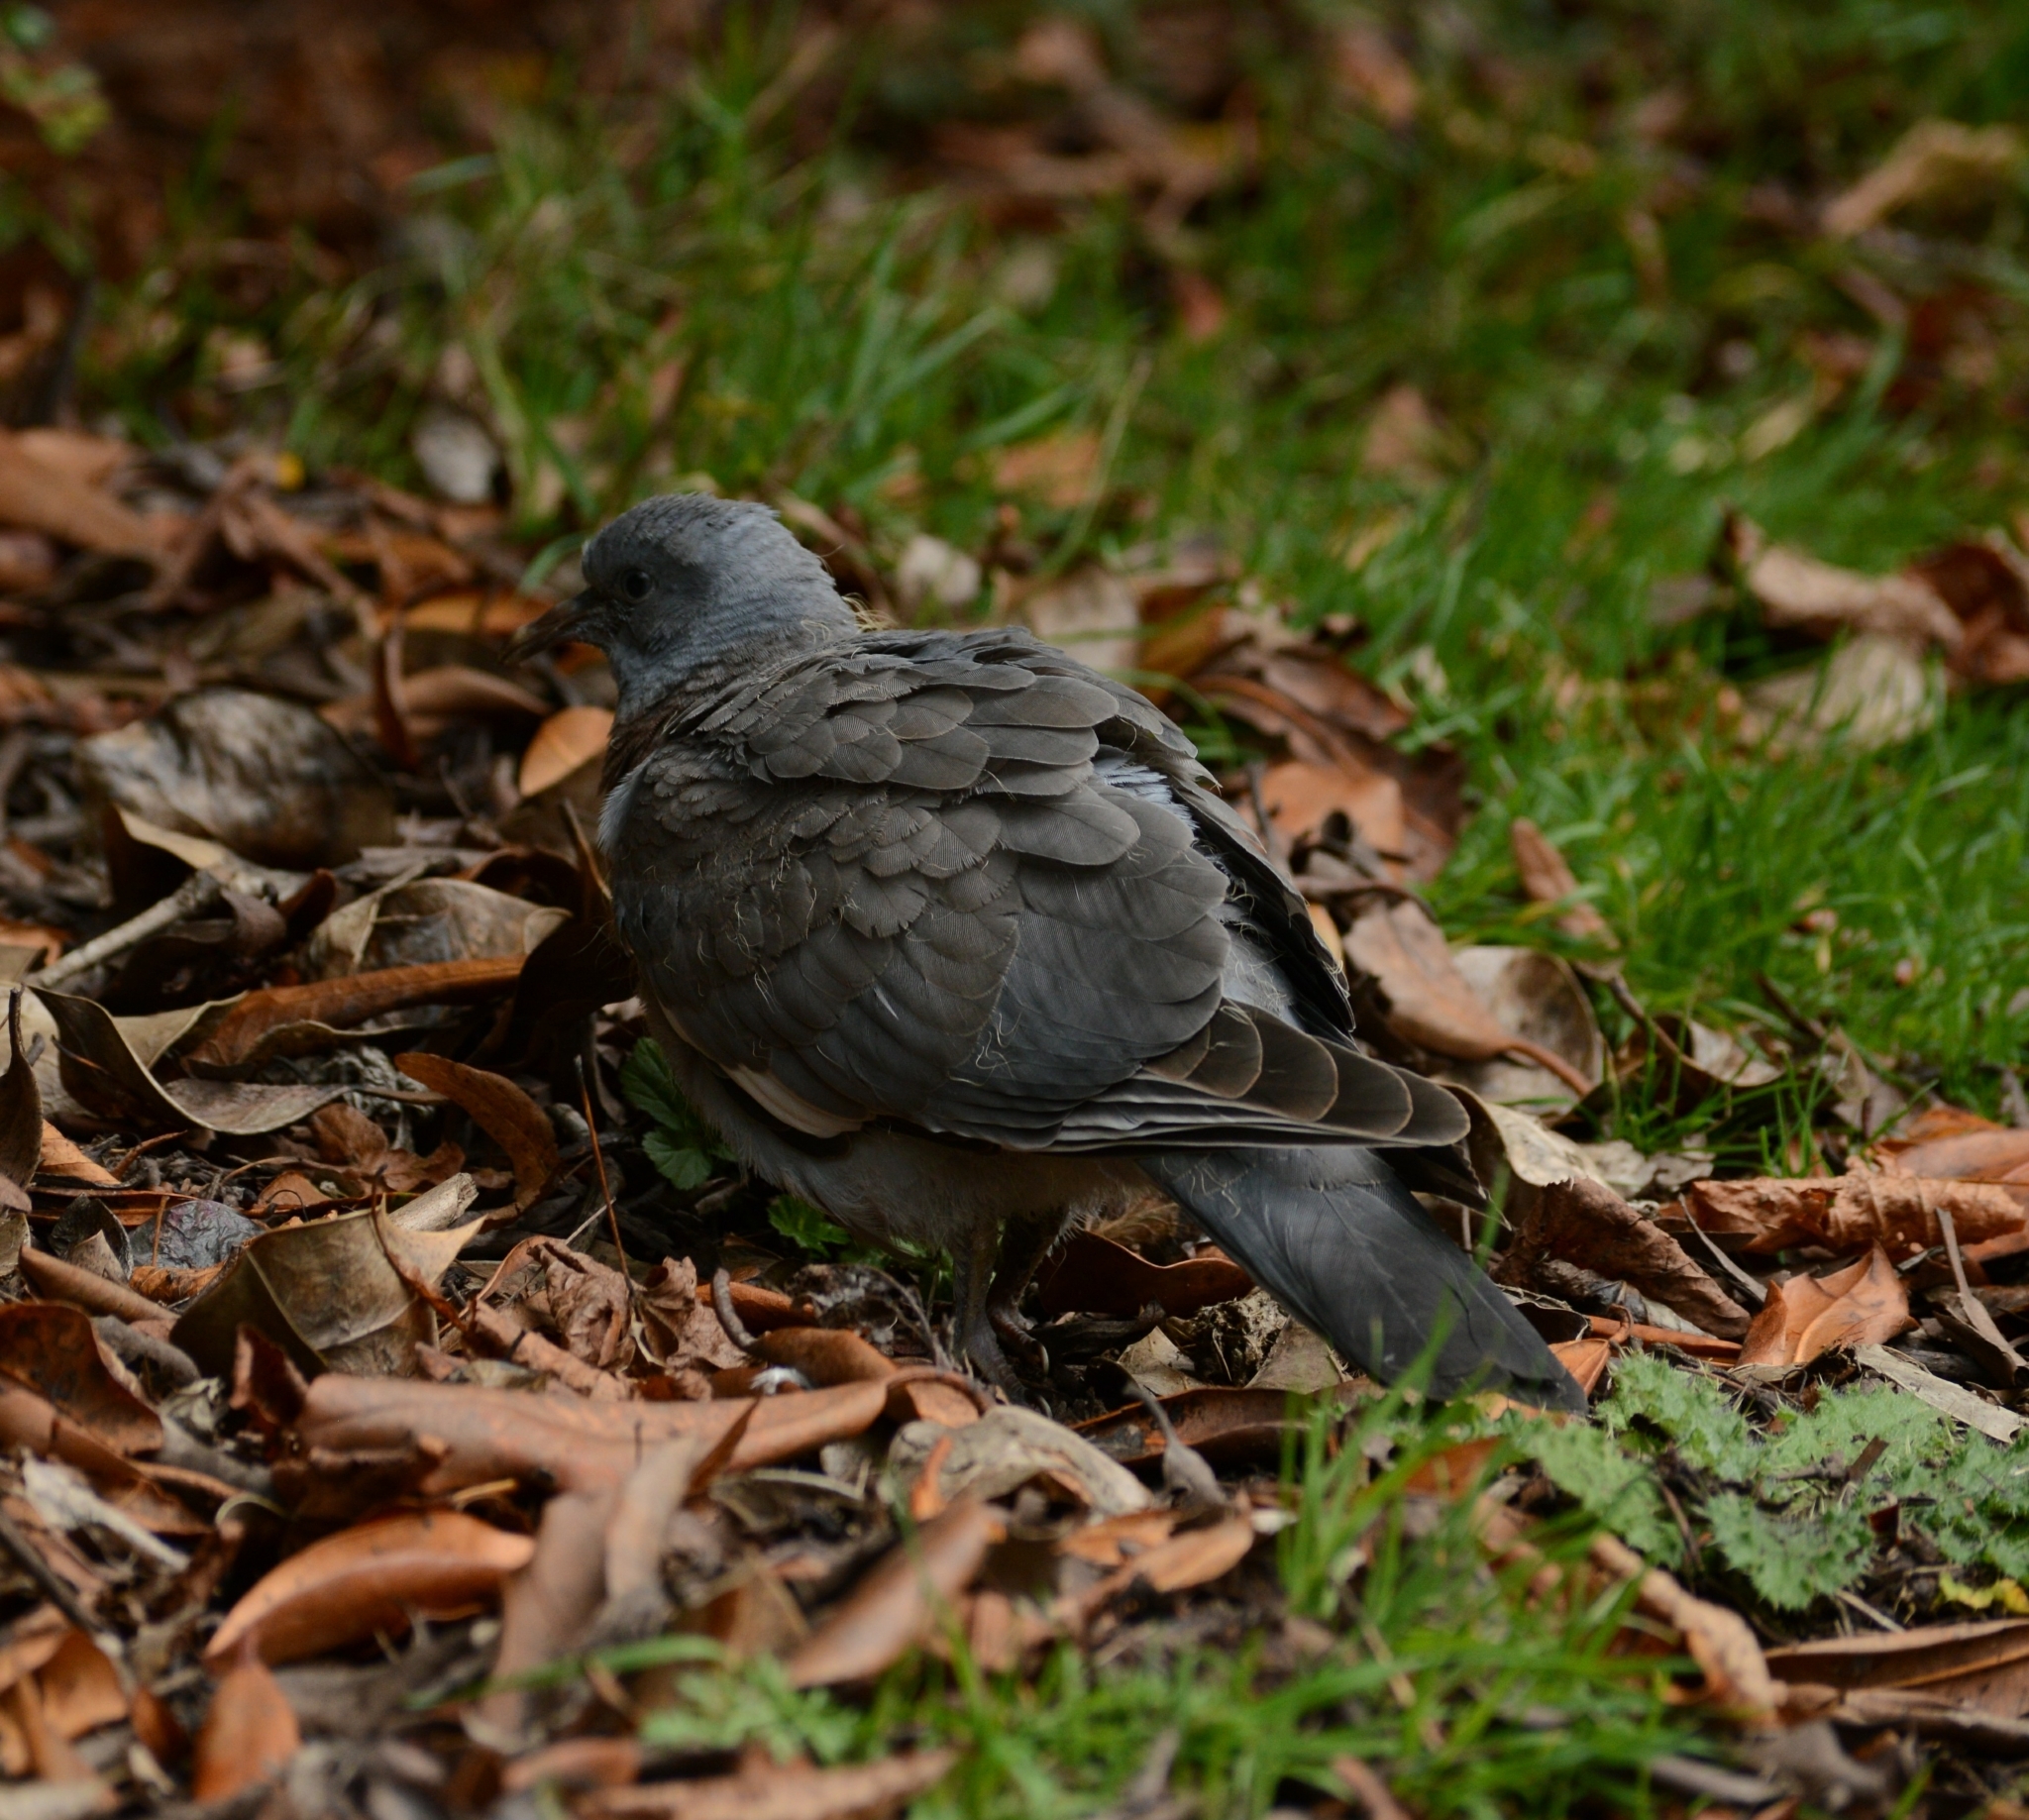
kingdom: Animalia
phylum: Chordata
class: Aves
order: Columbiformes
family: Columbidae
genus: Columba
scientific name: Columba palumbus
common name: Common wood pigeon
